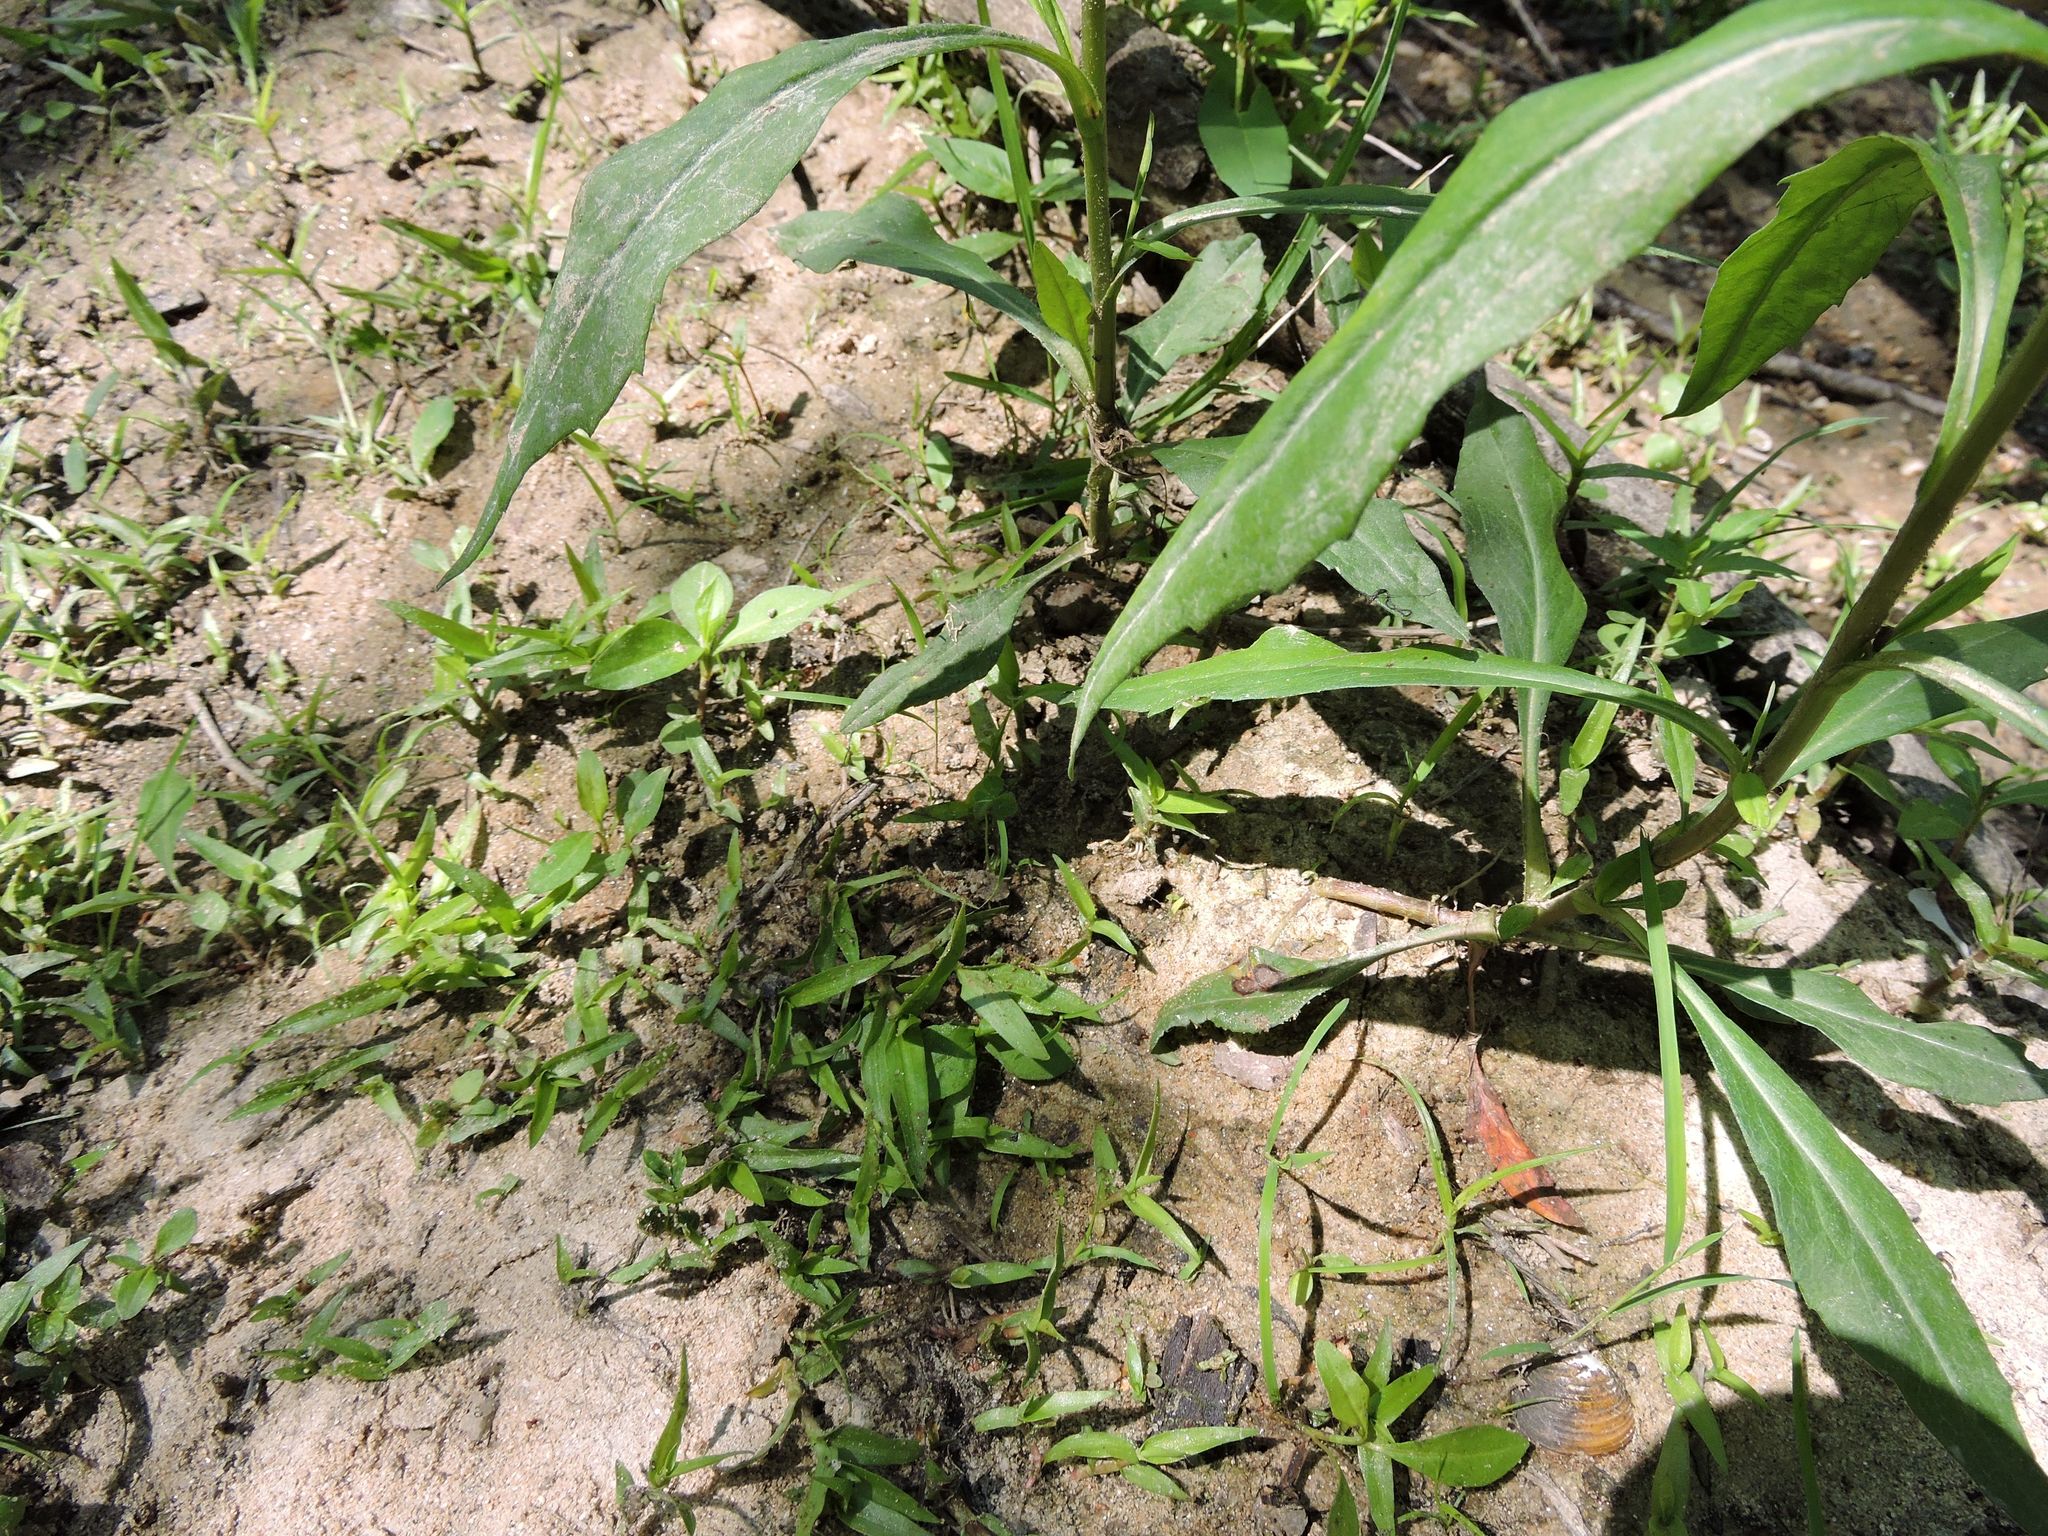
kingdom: Animalia
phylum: Arthropoda
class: Insecta
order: Hemiptera
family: Gelastocoridae
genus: Gelastocoris
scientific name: Gelastocoris oculatus
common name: Toad bug
